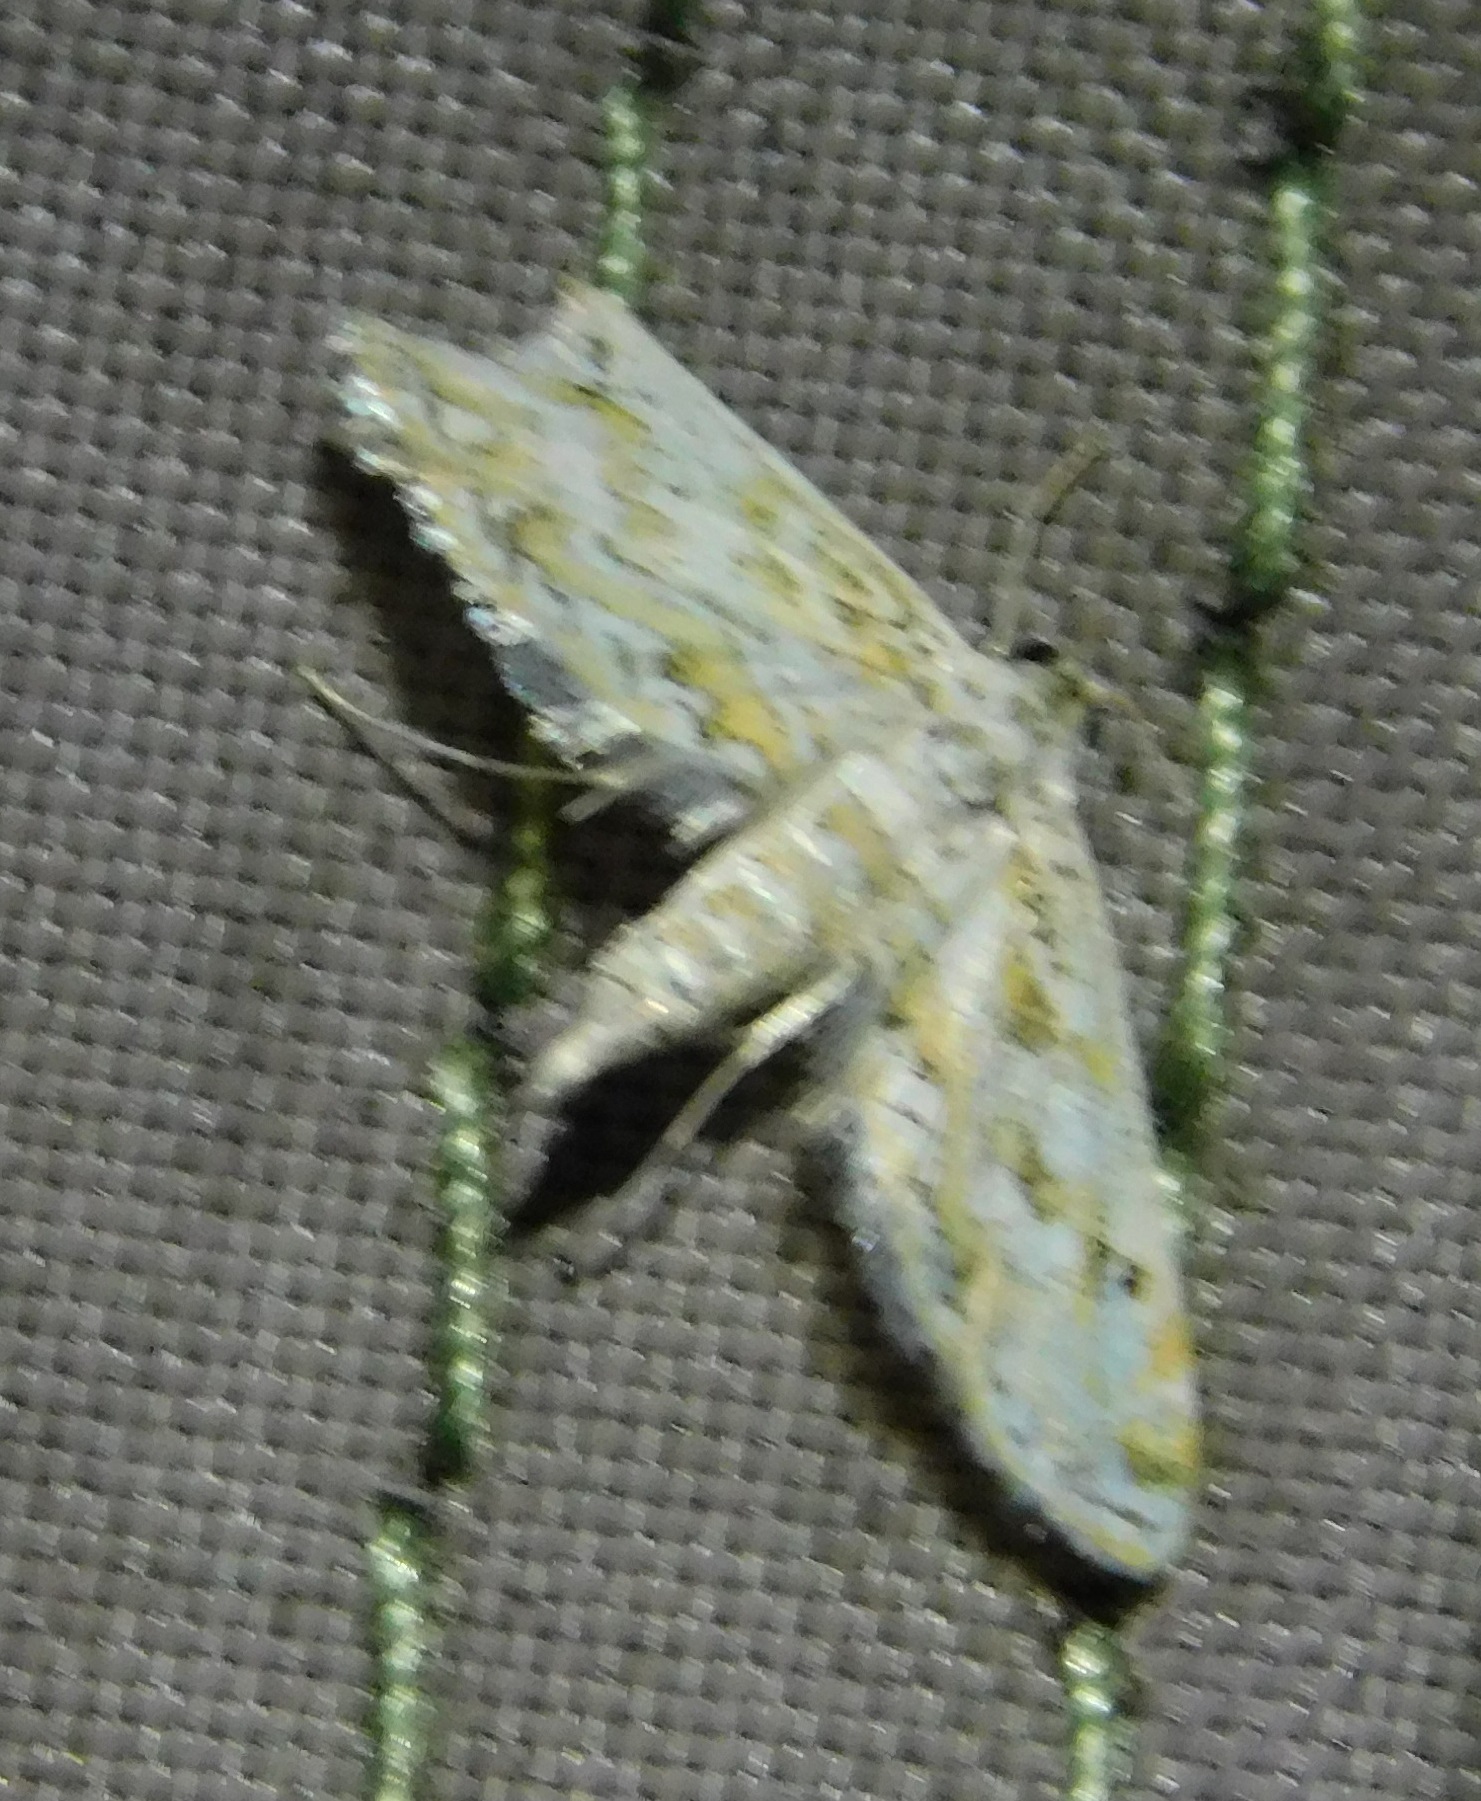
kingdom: Animalia
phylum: Arthropoda
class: Insecta
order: Lepidoptera
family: Crambidae
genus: Parapoynx
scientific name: Parapoynx diminutalis
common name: Hydrilla leafcutter
